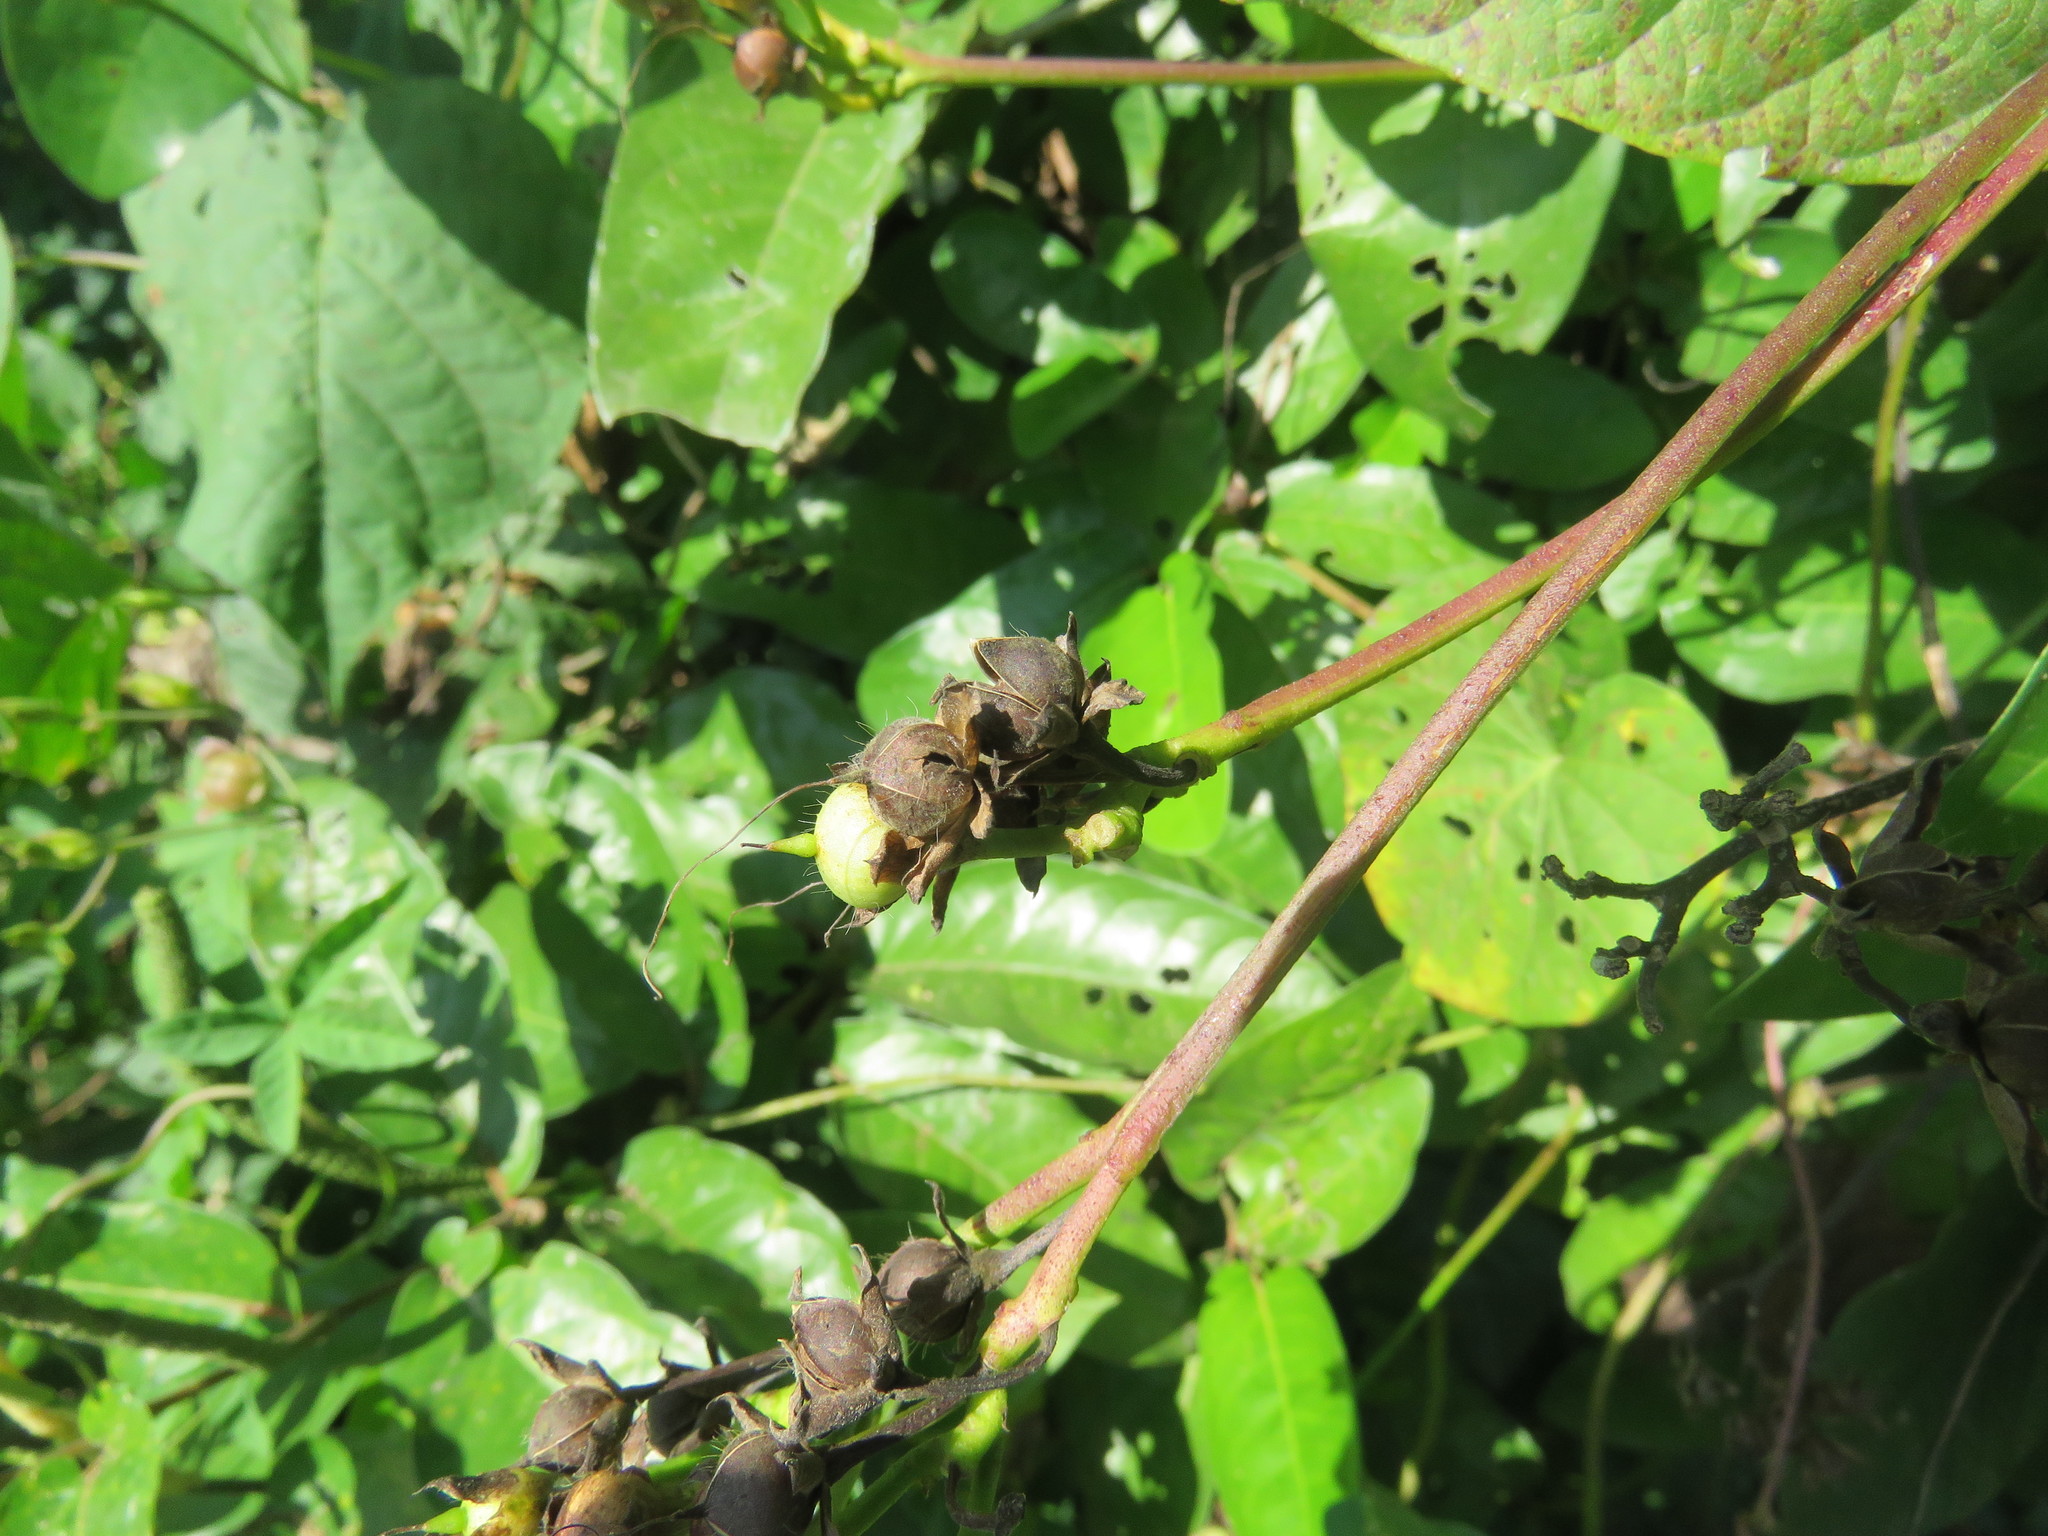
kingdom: Plantae
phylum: Tracheophyta
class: Magnoliopsida
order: Solanales
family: Convolvulaceae
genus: Ipomoea
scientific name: Ipomoea batatas
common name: Sweet-potato
